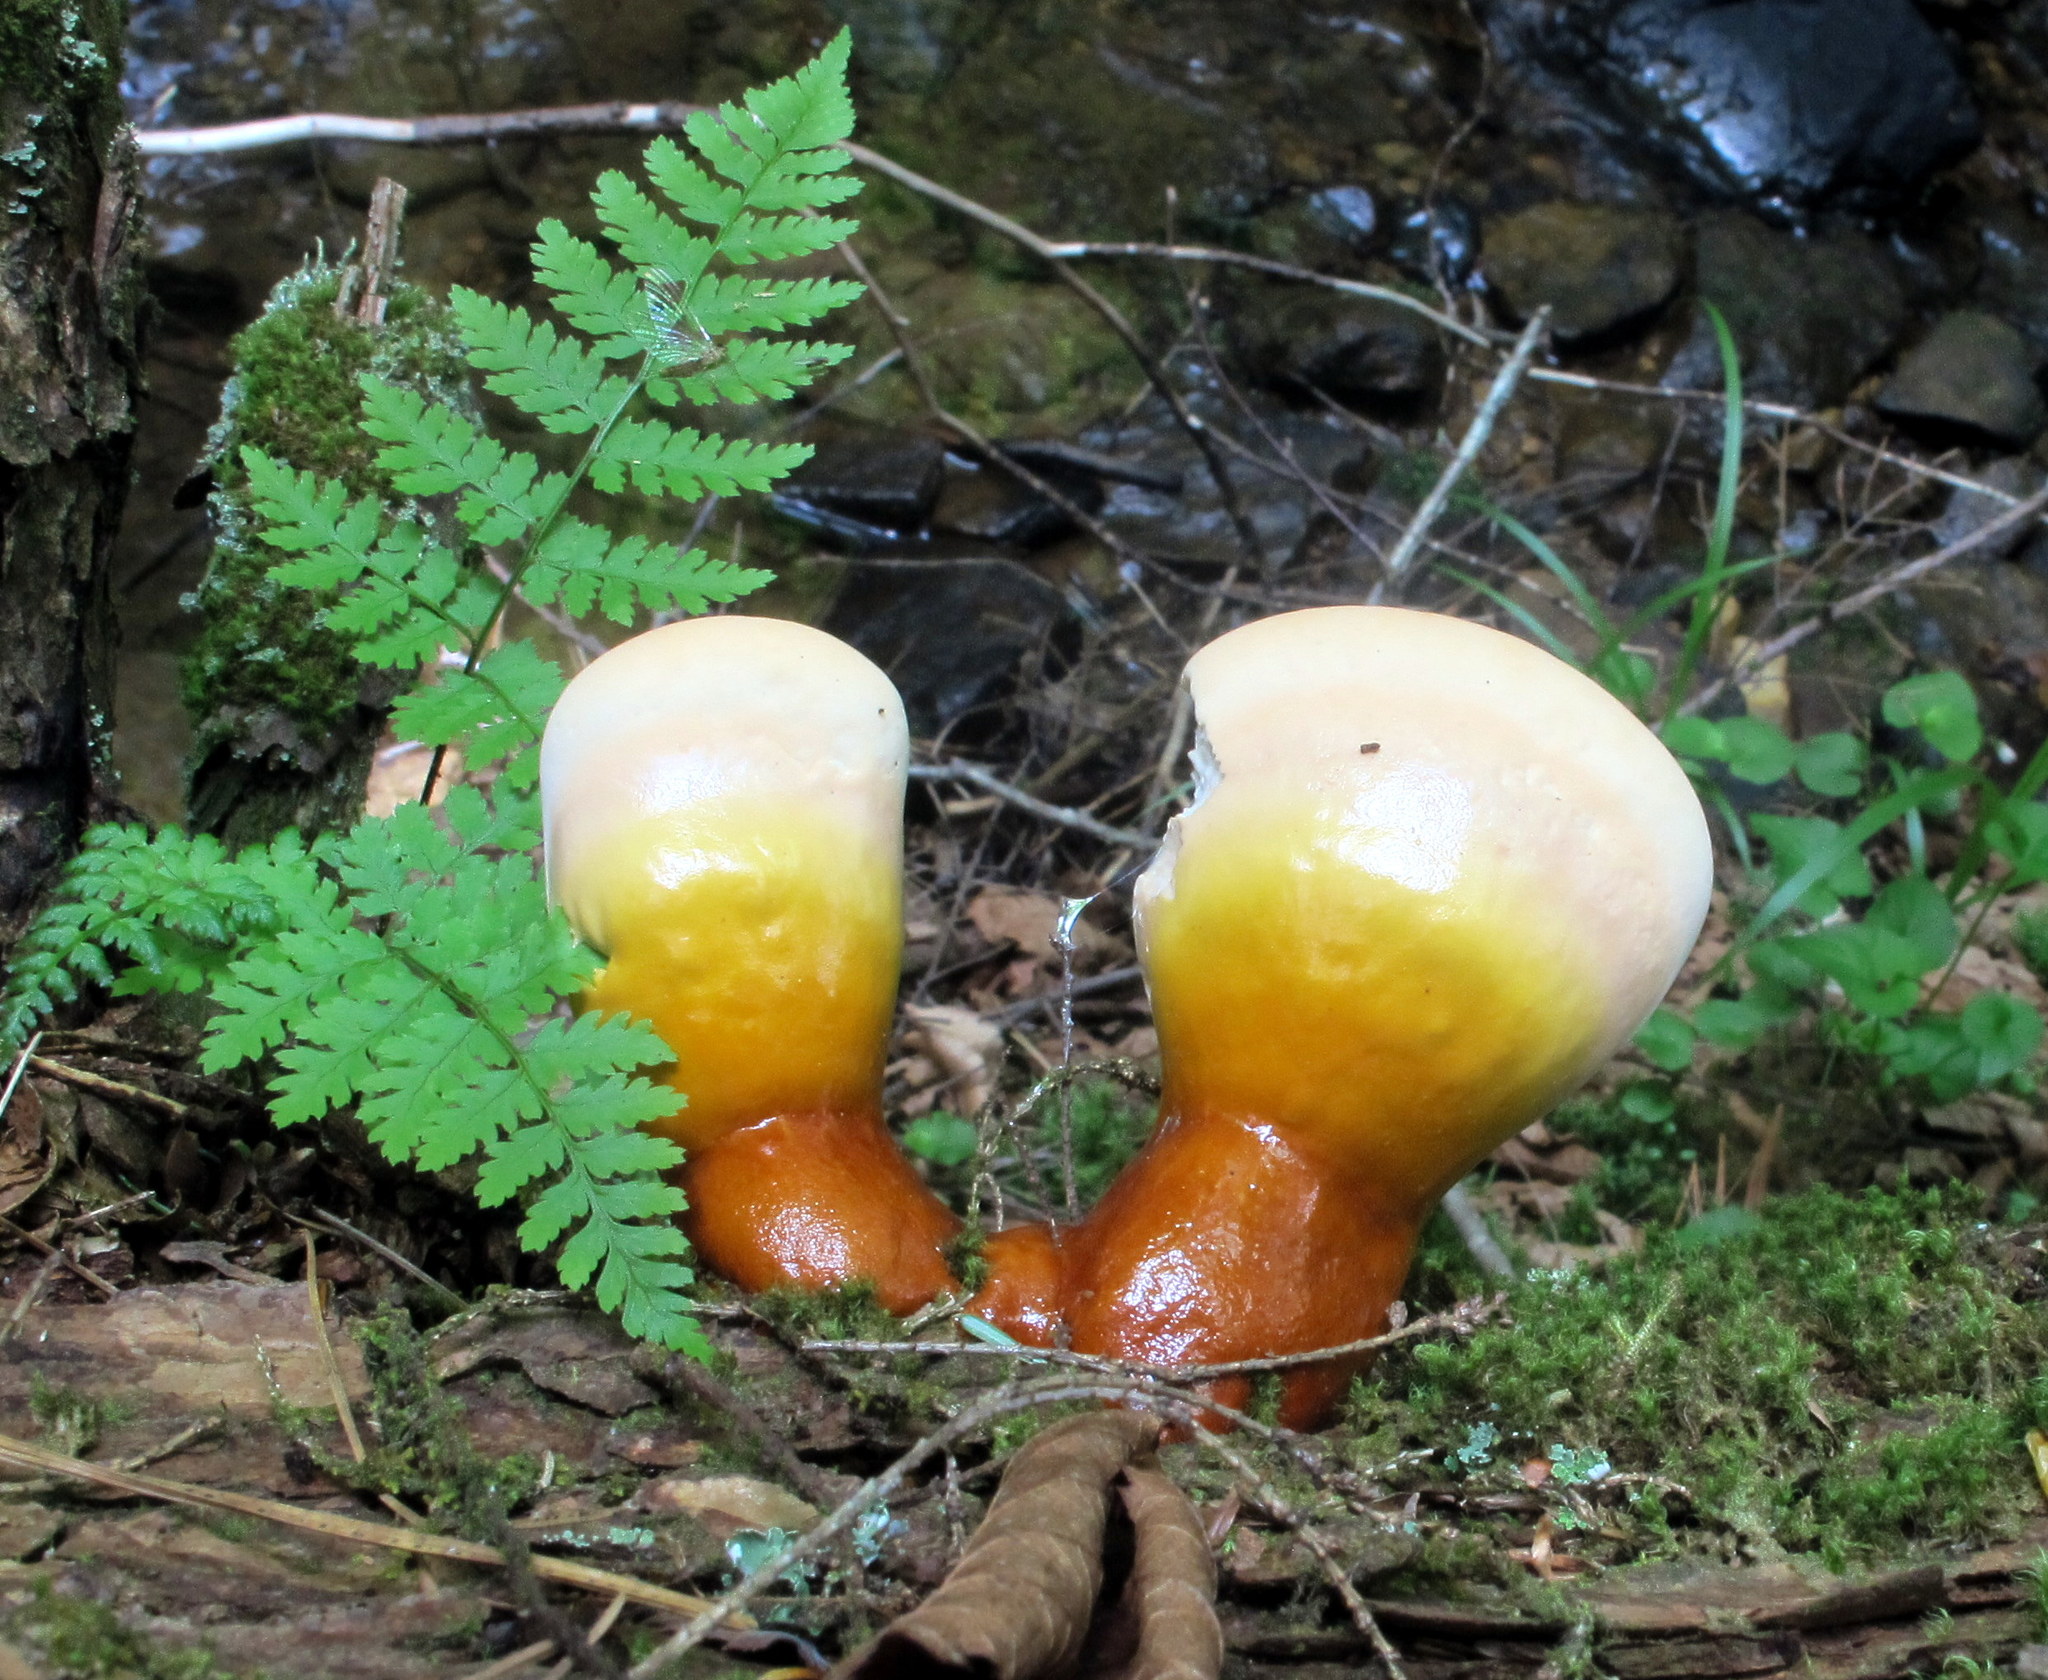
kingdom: Fungi
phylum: Basidiomycota
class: Agaricomycetes
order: Polyporales
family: Polyporaceae
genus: Ganoderma
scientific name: Ganoderma tsugae
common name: Hemlock varnish shelf
